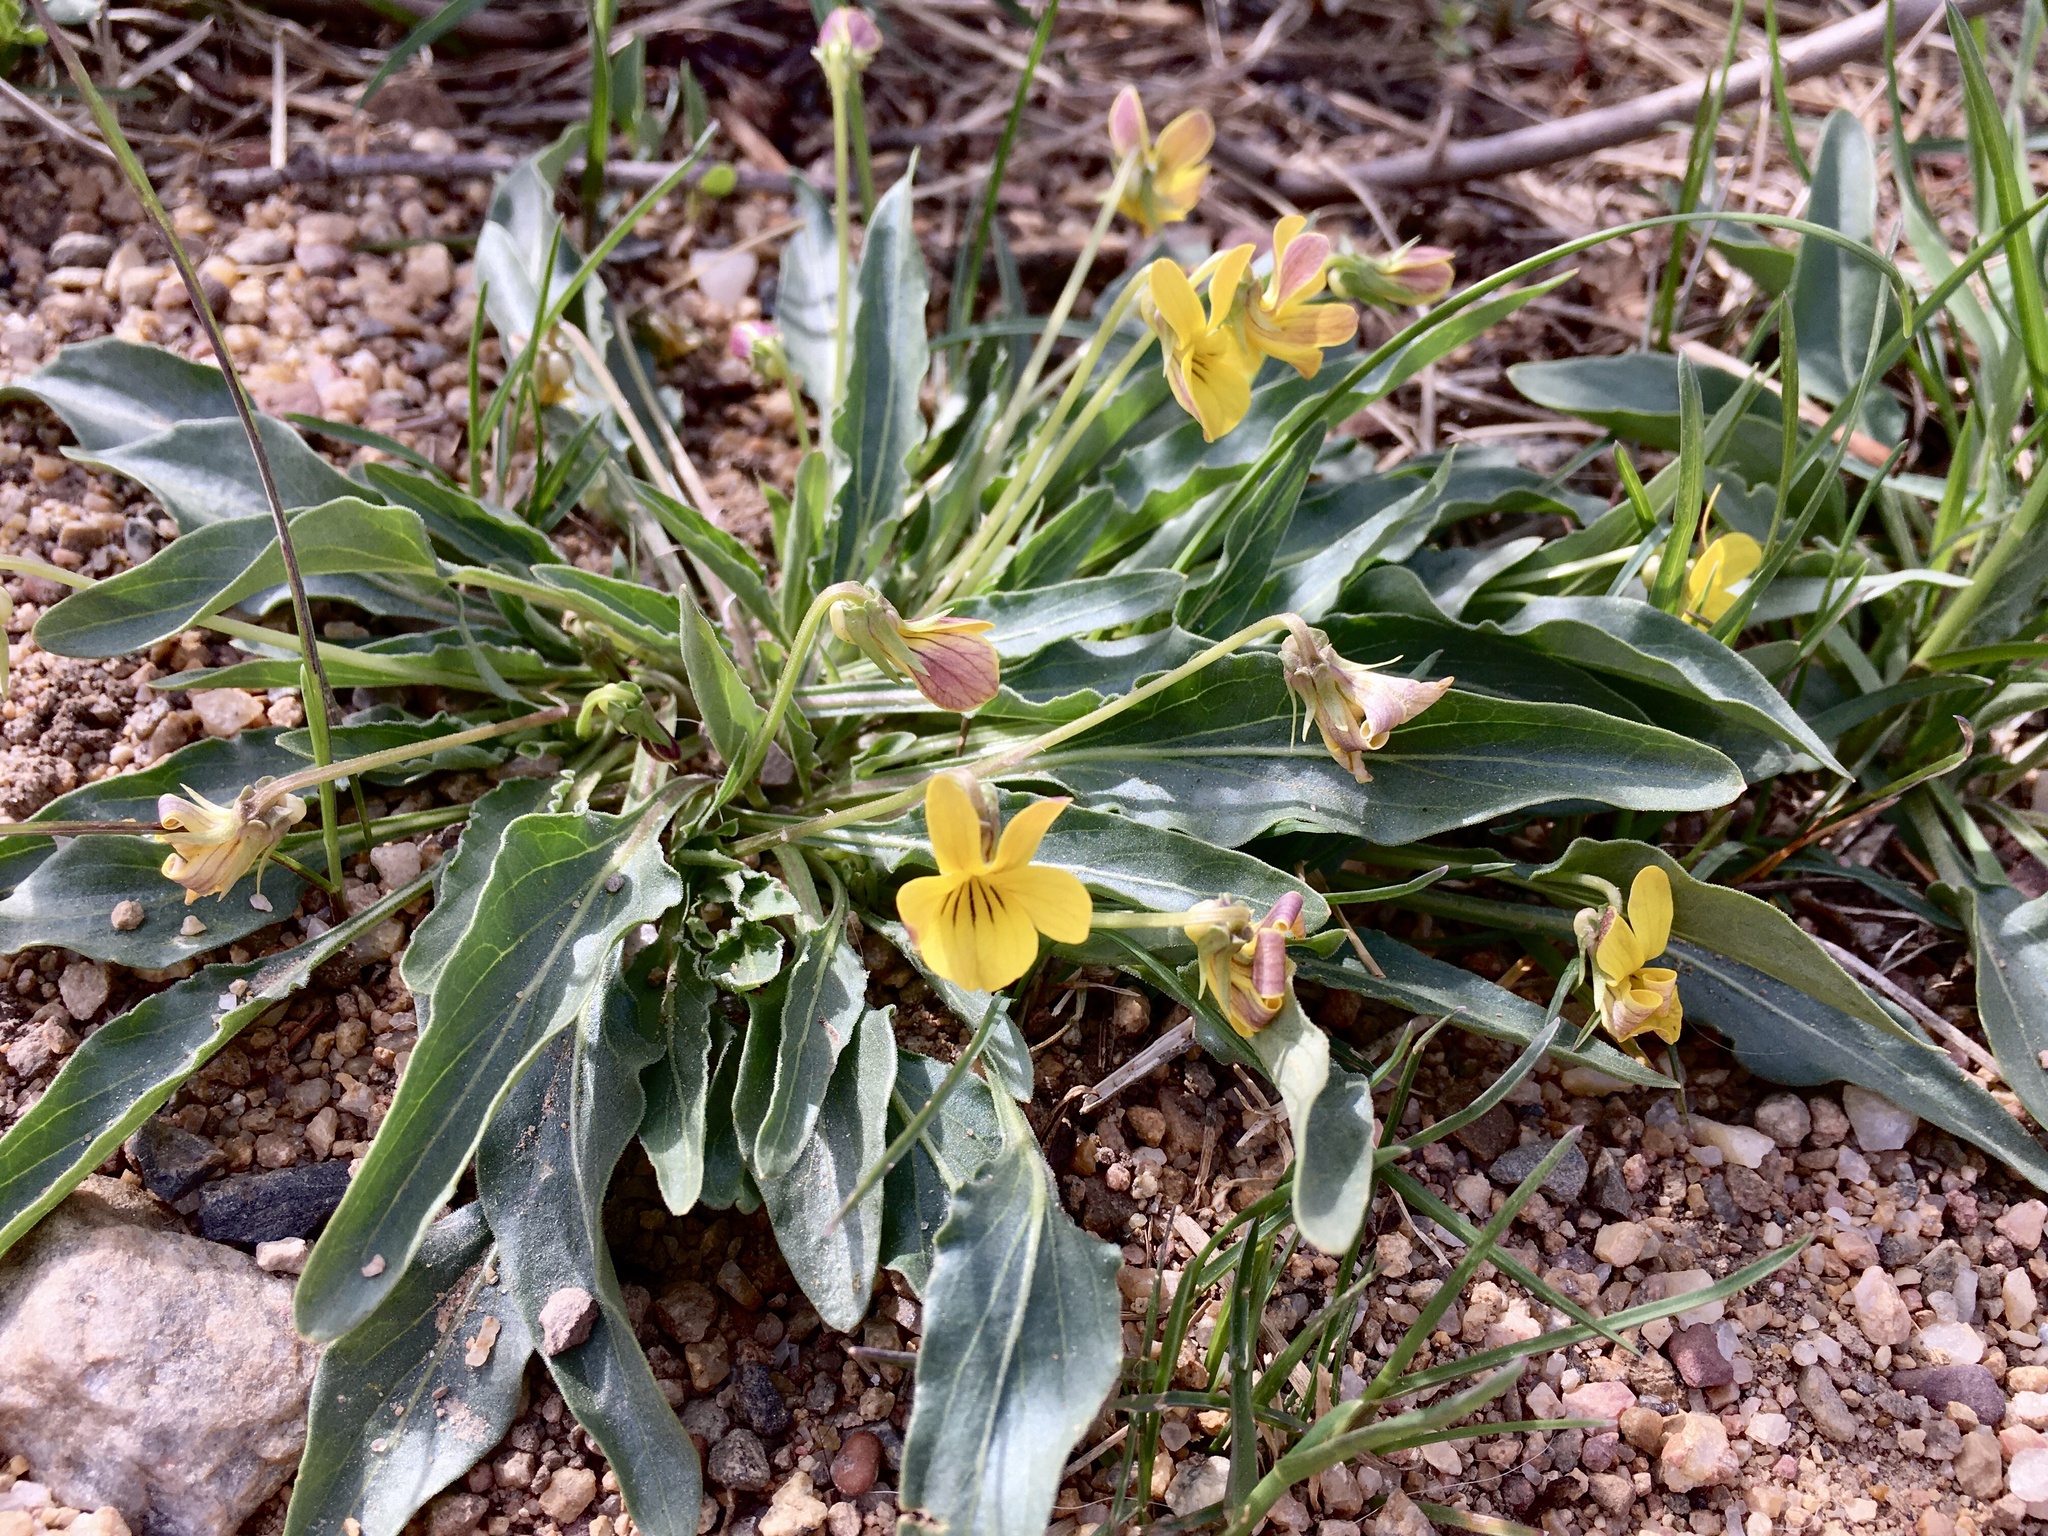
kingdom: Plantae
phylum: Tracheophyta
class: Magnoliopsida
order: Malpighiales
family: Violaceae
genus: Viola
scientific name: Viola nuttallii
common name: Yellow prairie violet
